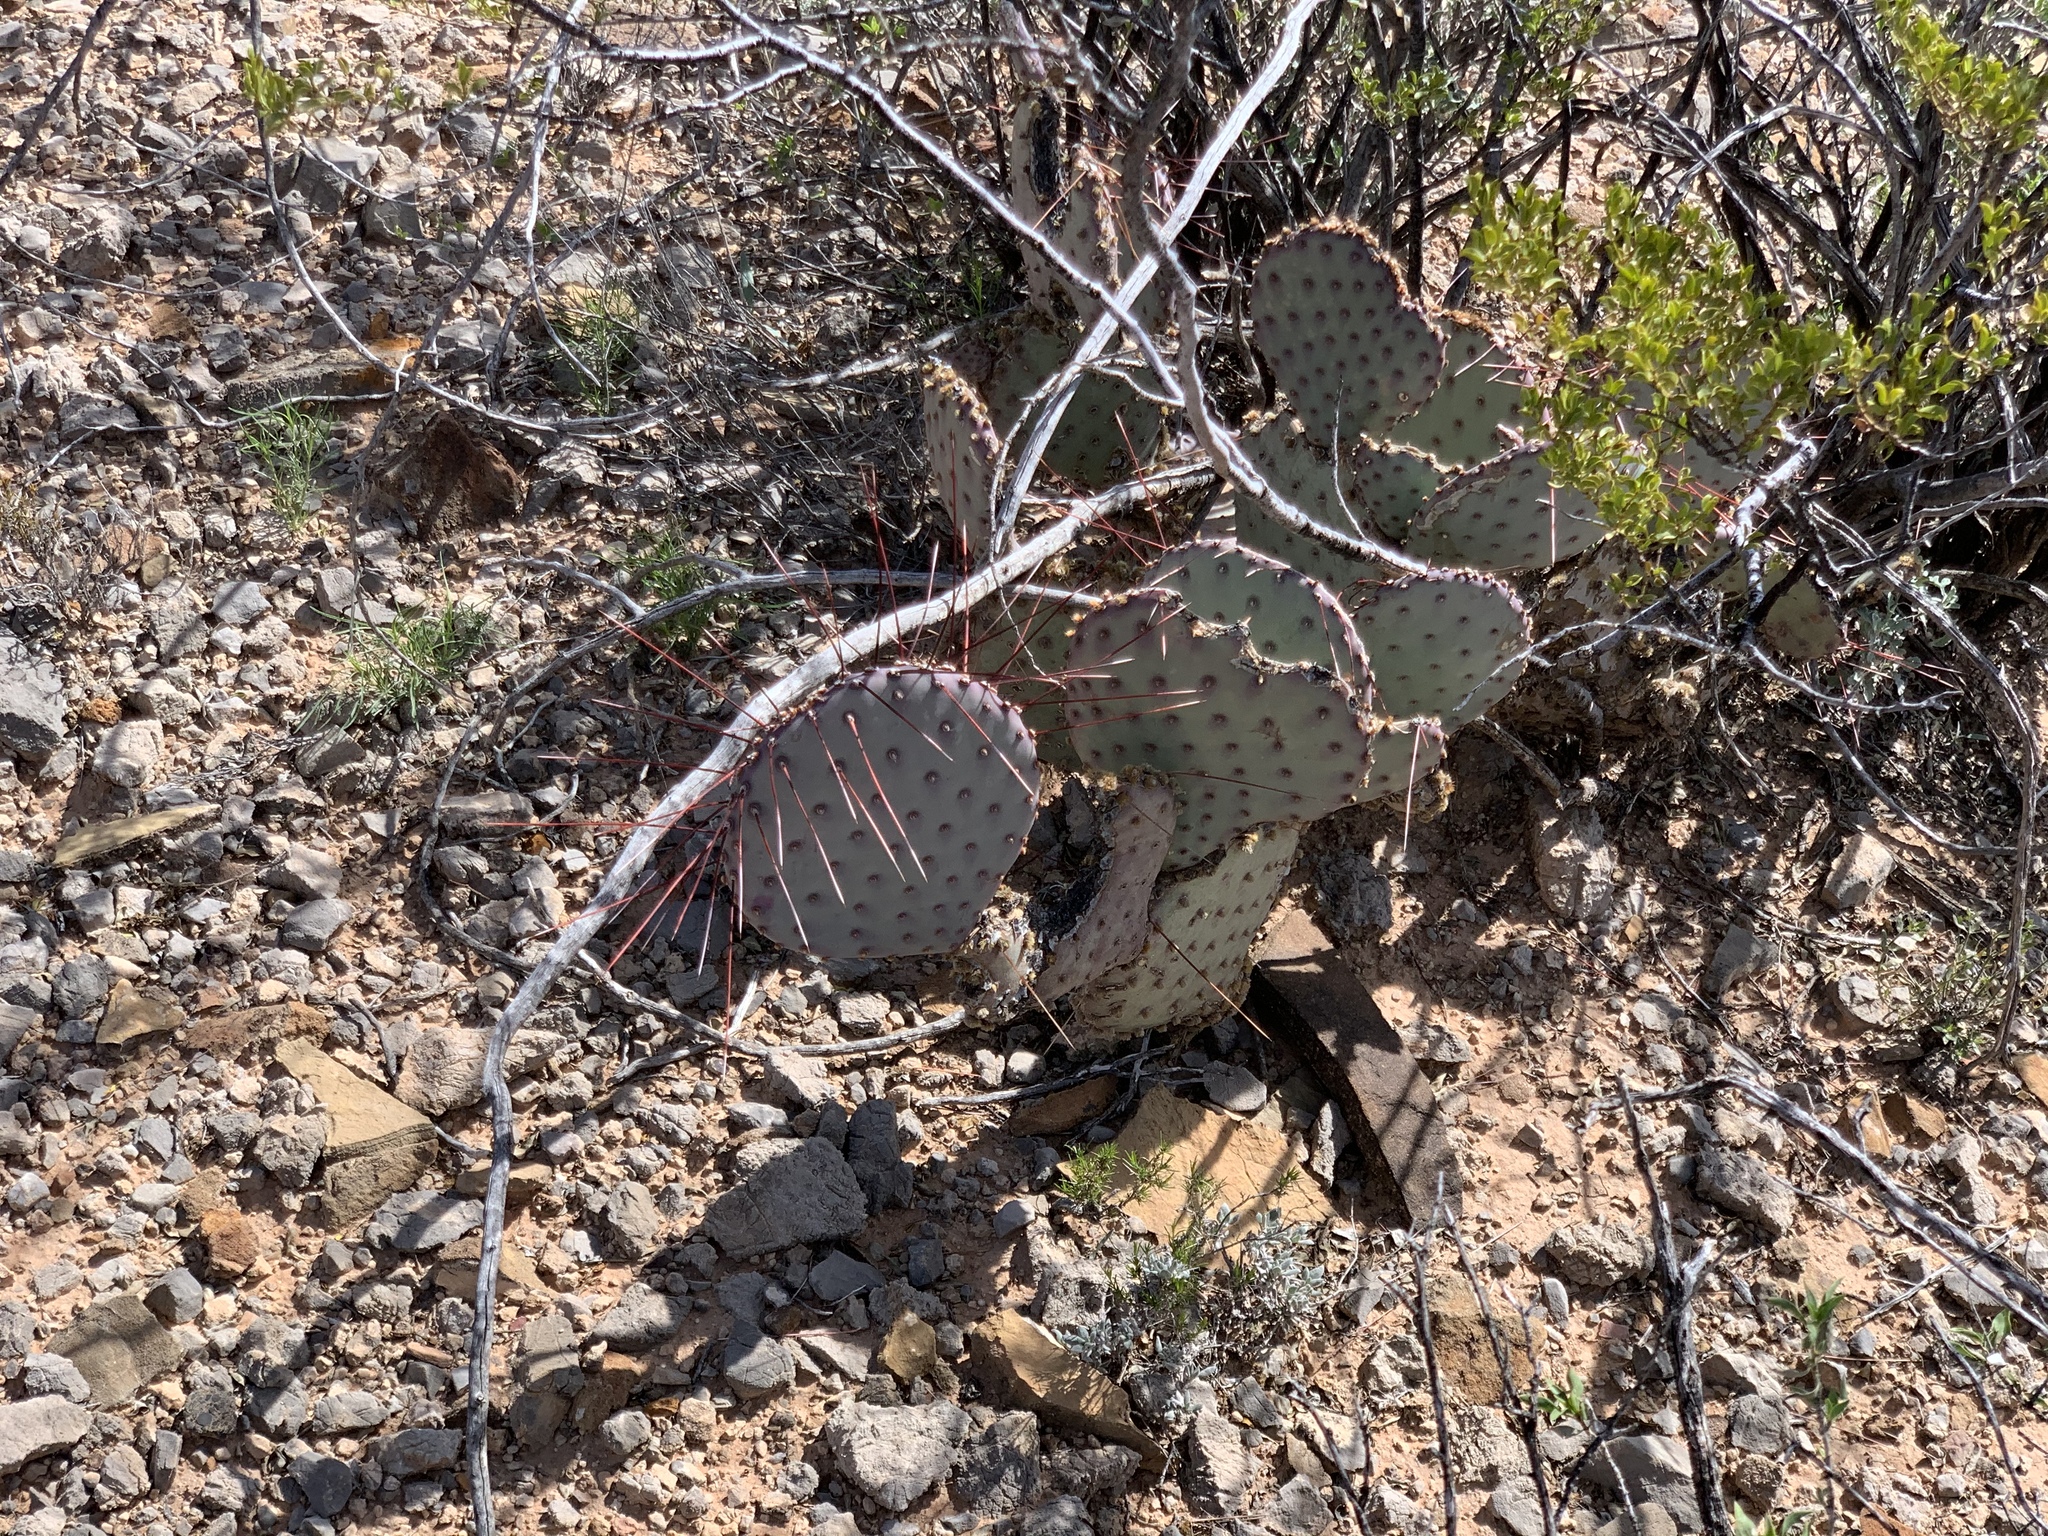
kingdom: Plantae
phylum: Tracheophyta
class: Magnoliopsida
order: Caryophyllales
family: Cactaceae
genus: Opuntia
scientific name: Opuntia macrocentra
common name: Purple prickly-pear
